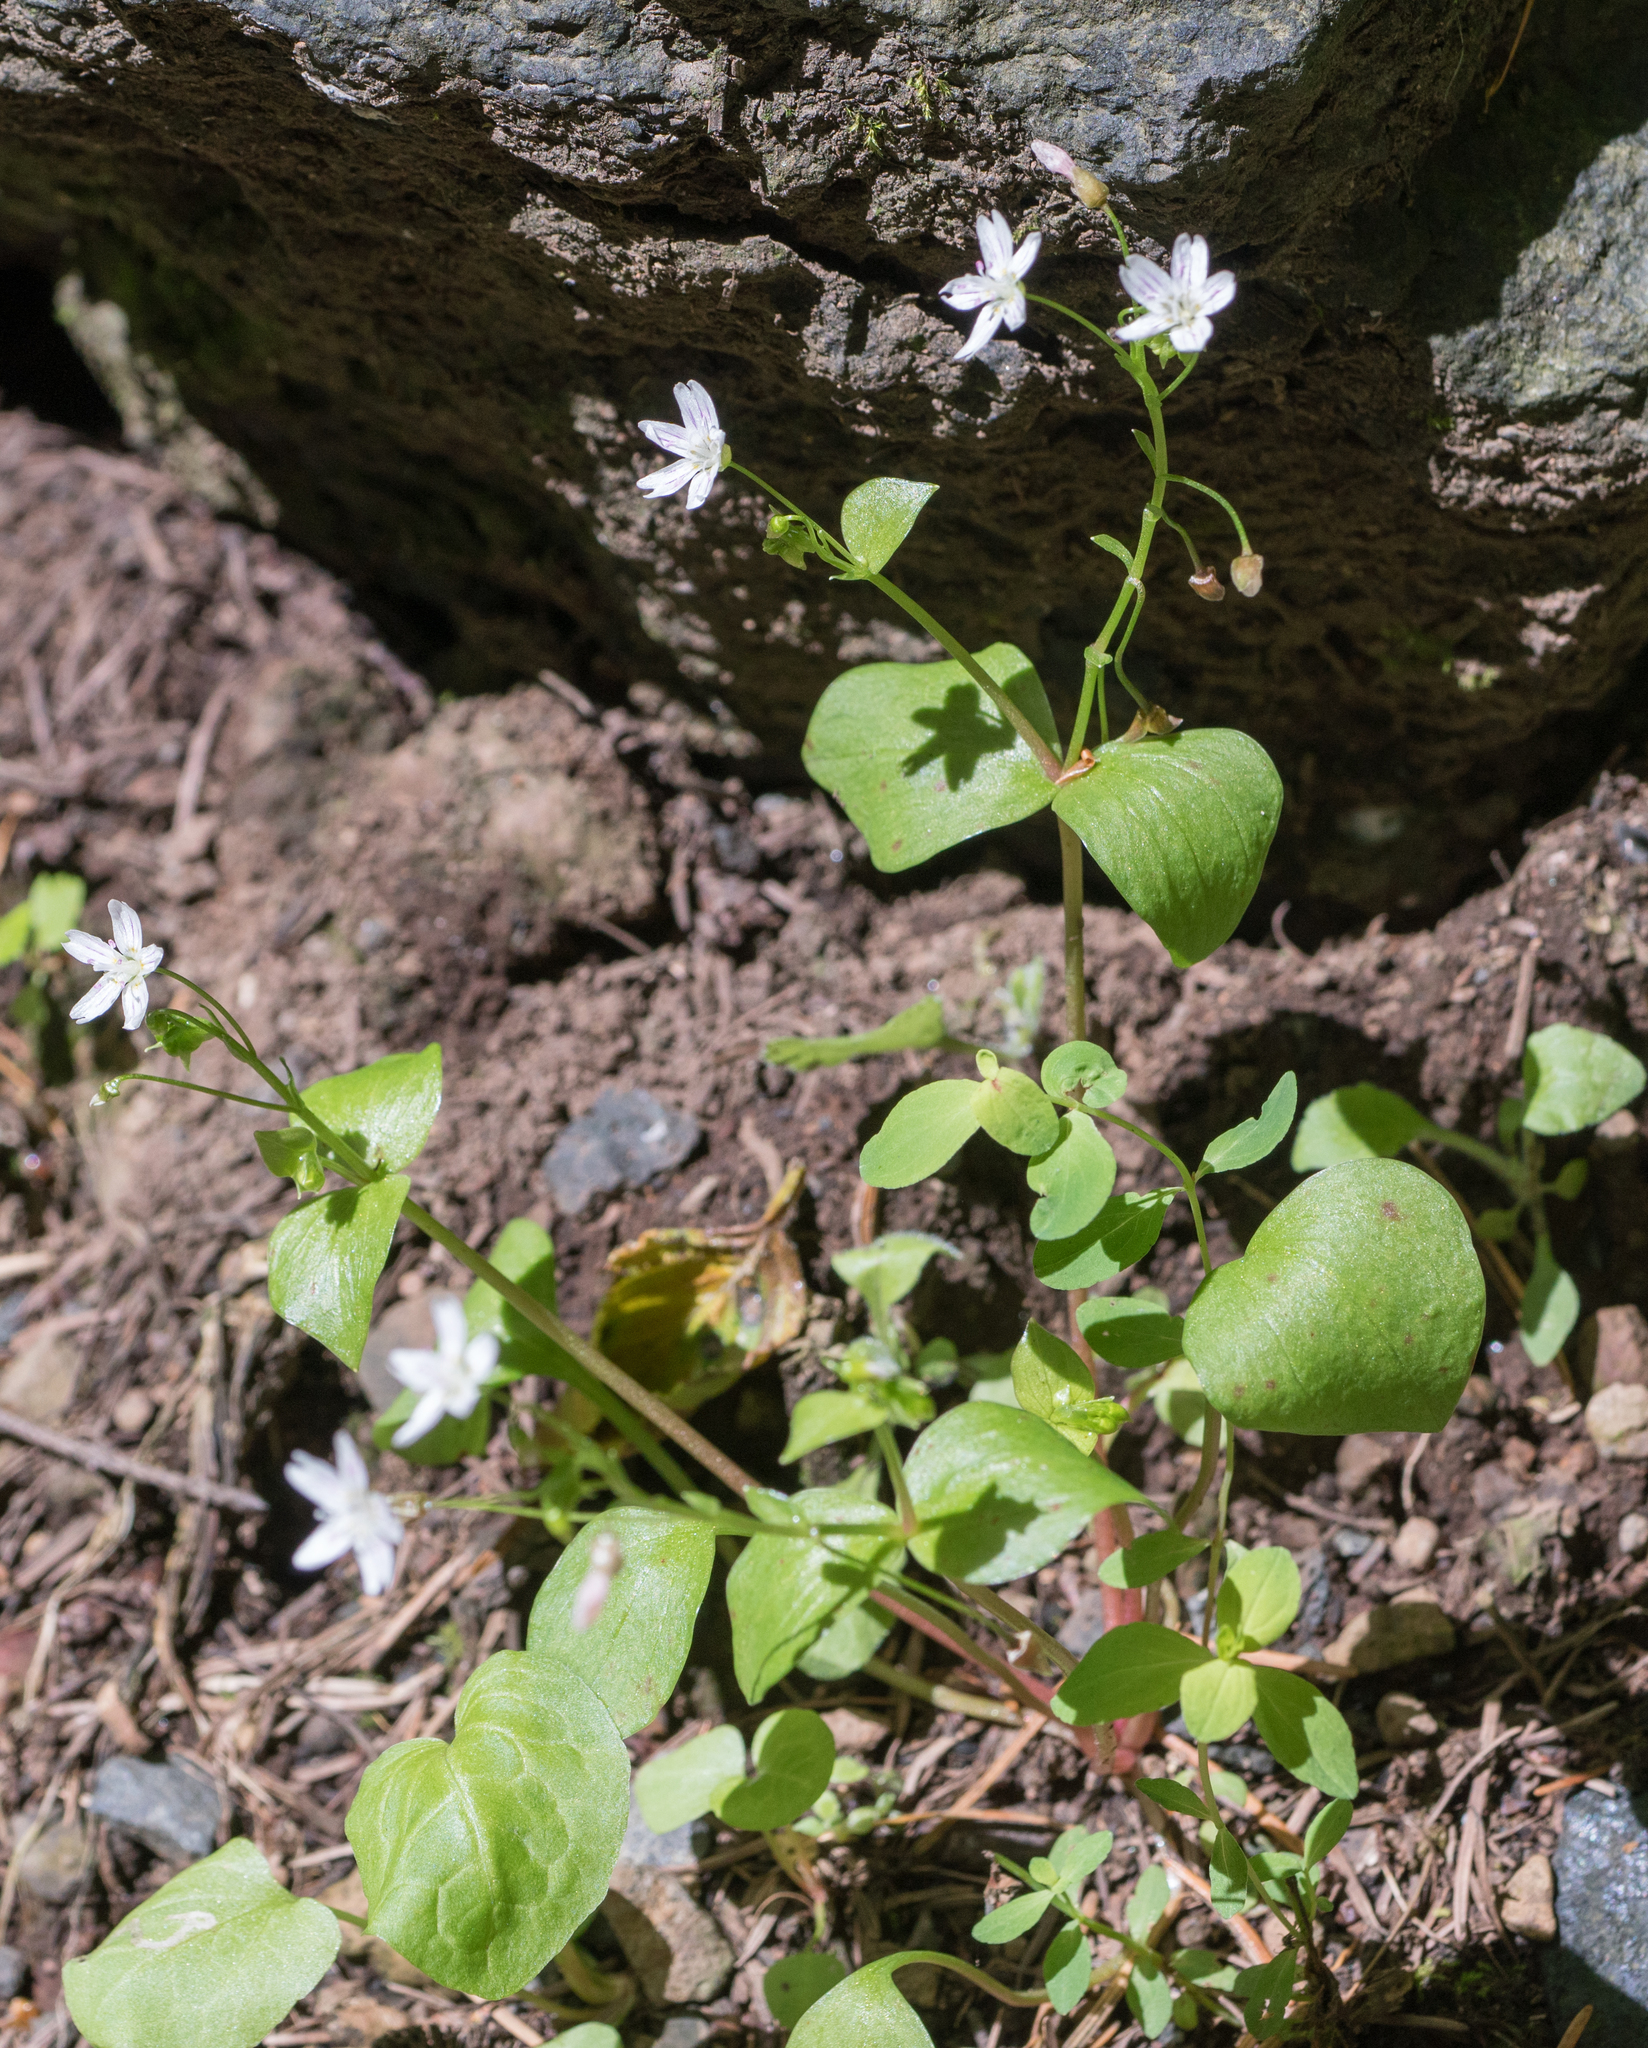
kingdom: Plantae
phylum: Tracheophyta
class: Magnoliopsida
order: Caryophyllales
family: Montiaceae
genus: Claytonia
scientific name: Claytonia sibirica
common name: Pink purslane
